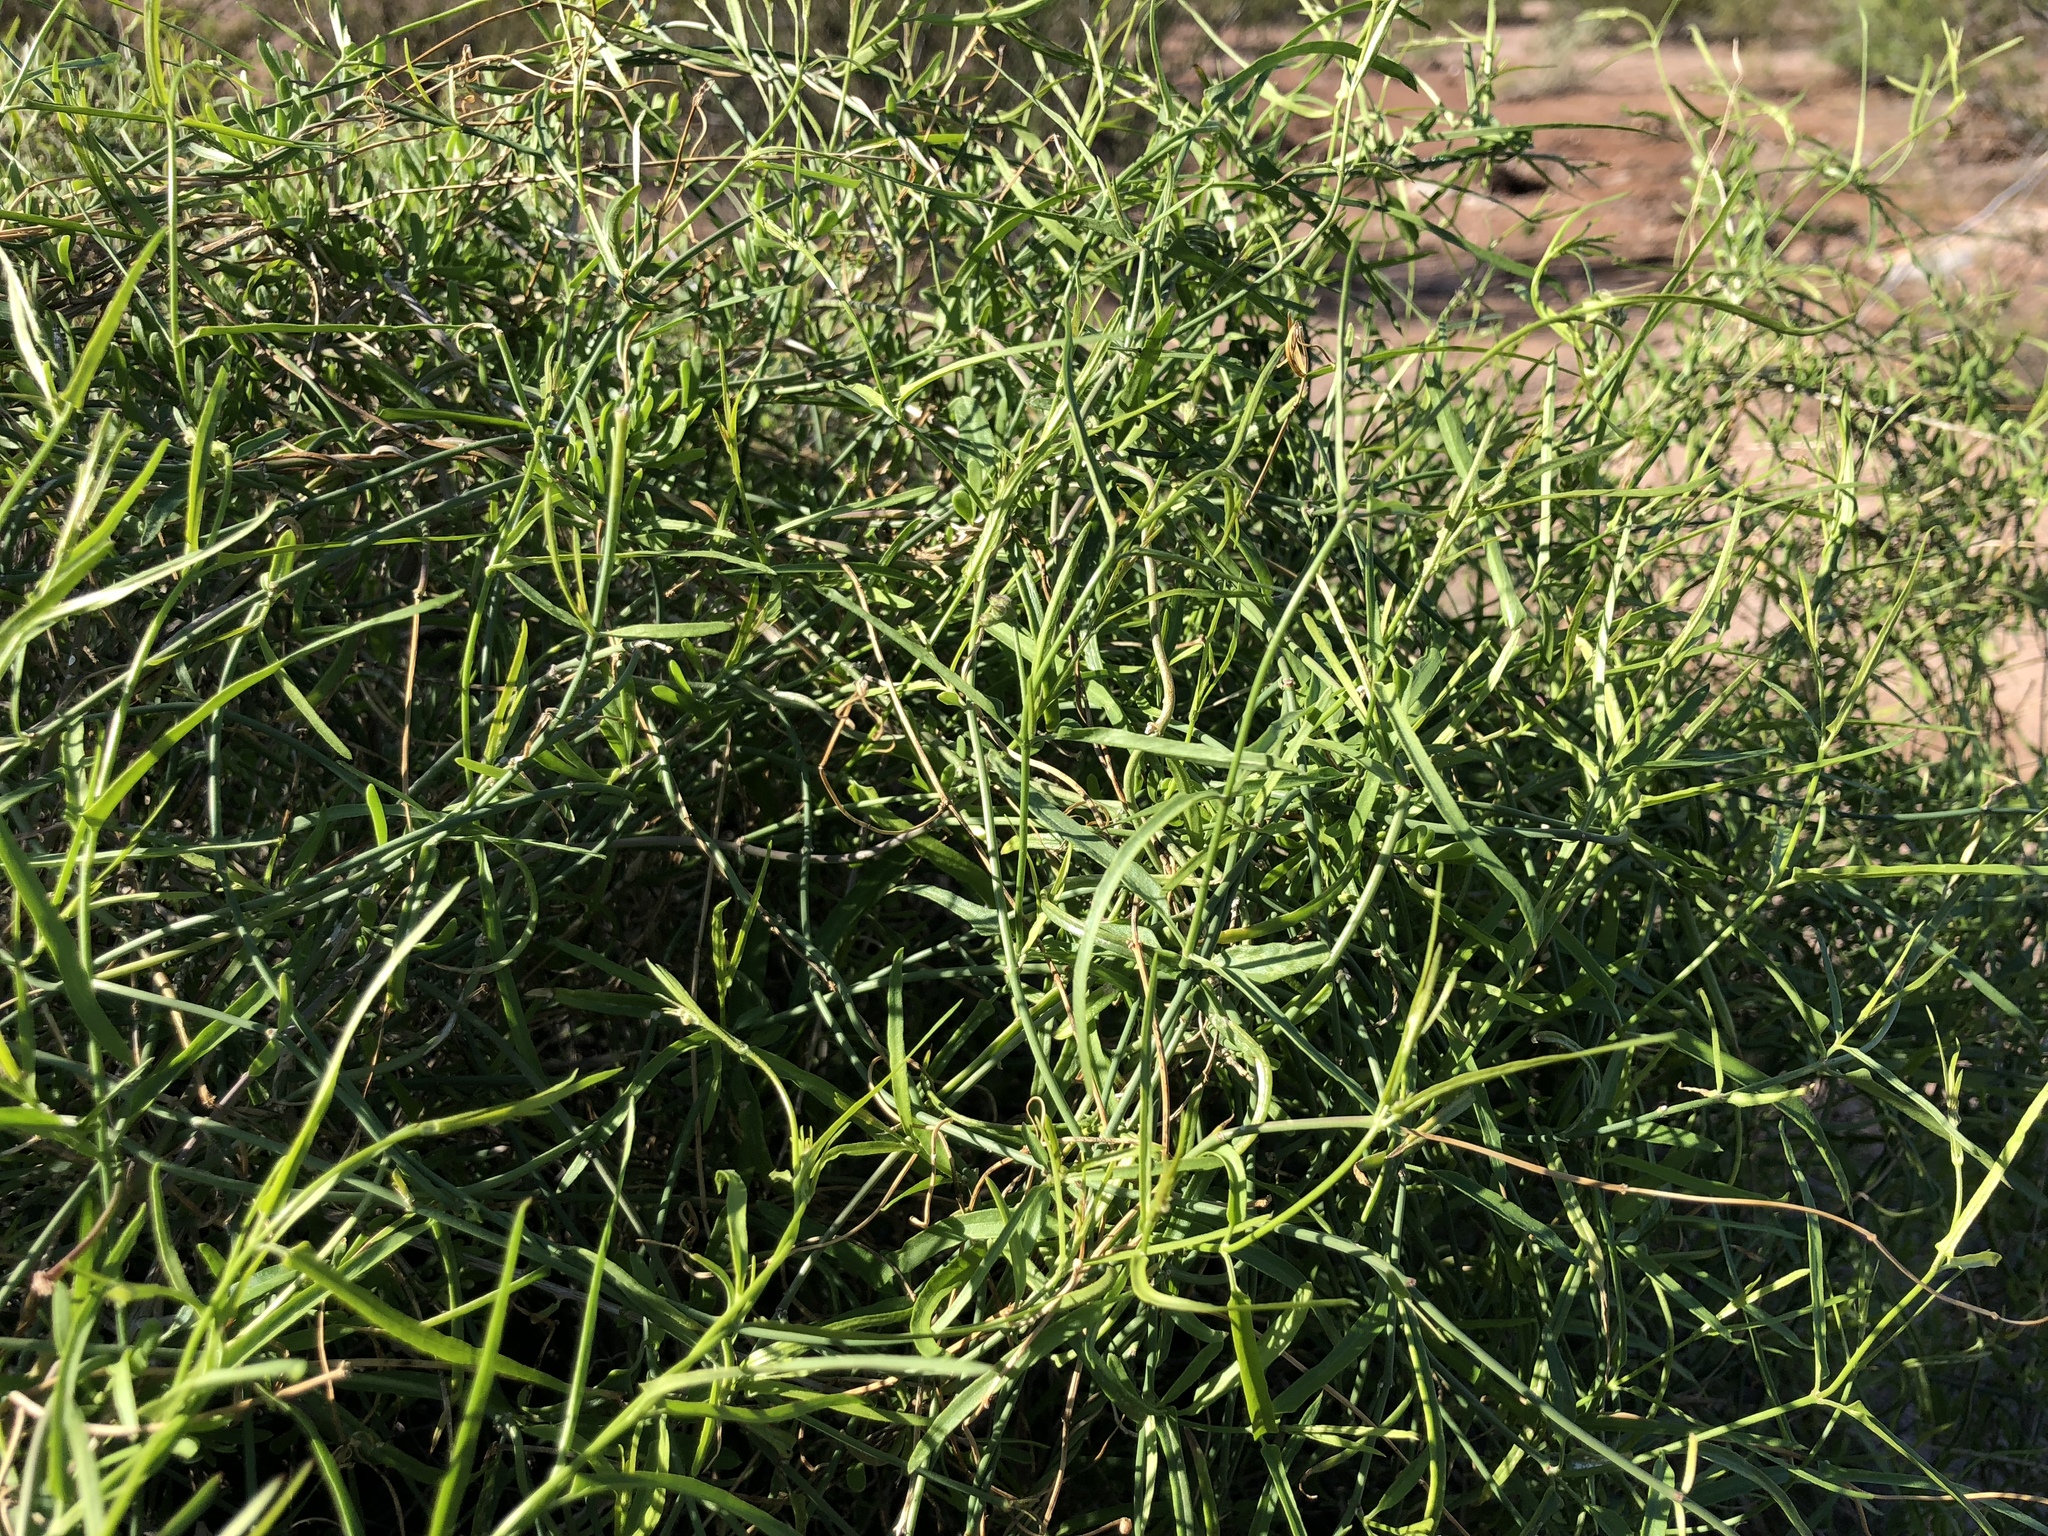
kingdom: Plantae
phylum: Tracheophyta
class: Magnoliopsida
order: Gentianales
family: Apocynaceae
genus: Funastrum
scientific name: Funastrum heterophyllum
